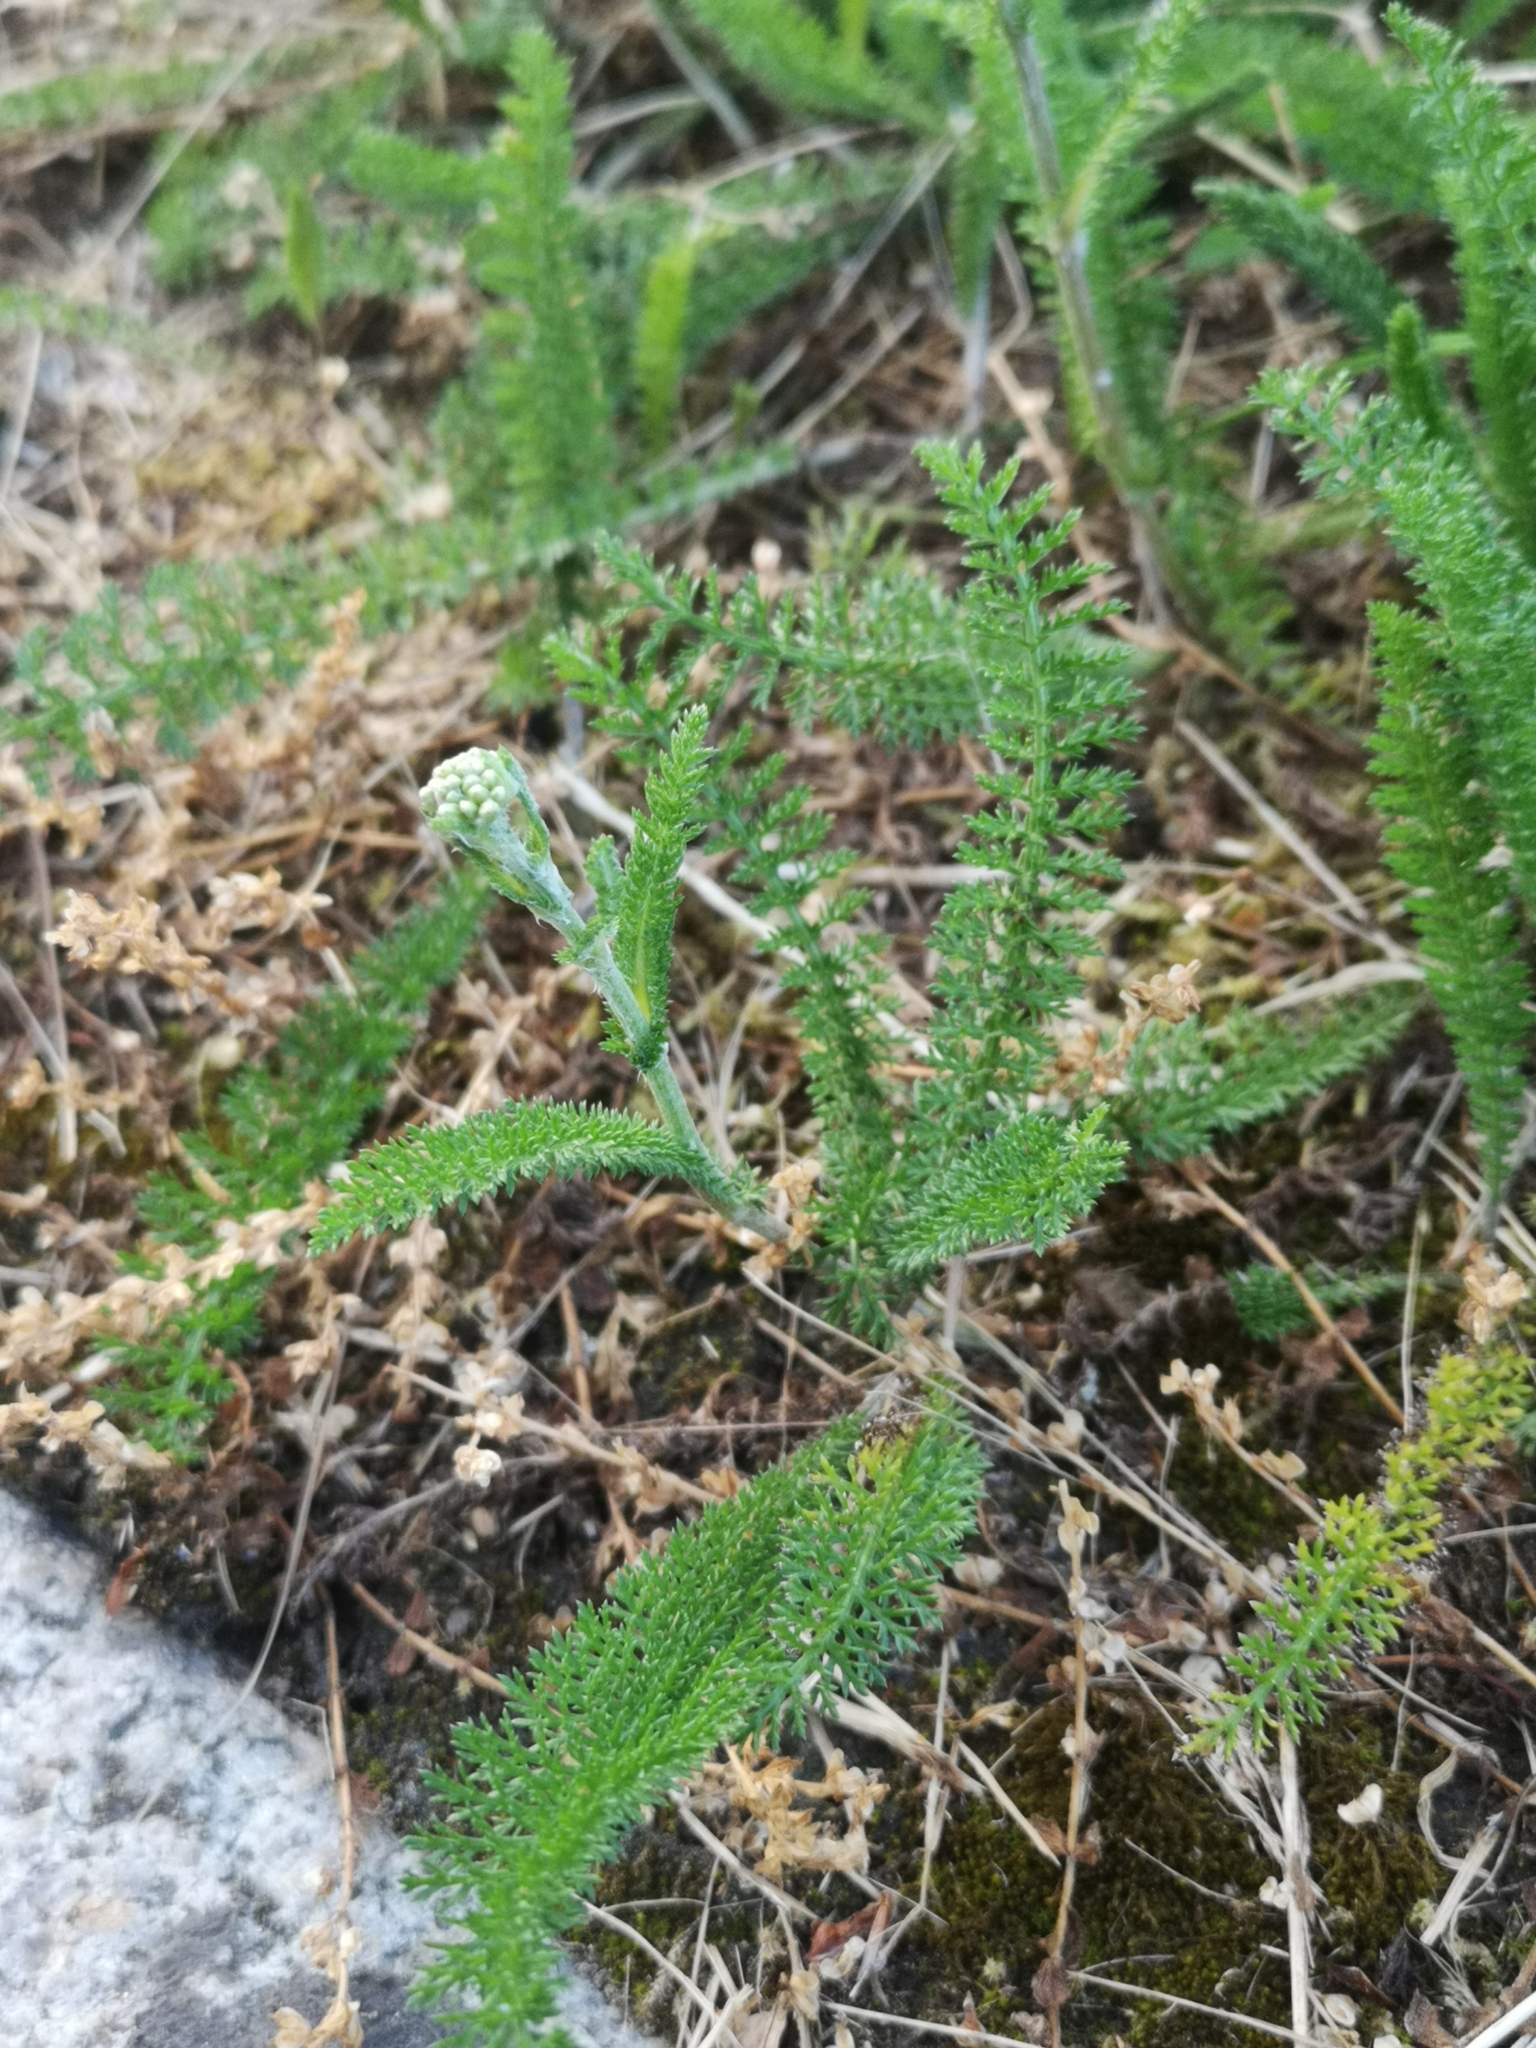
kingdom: Plantae
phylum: Tracheophyta
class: Magnoliopsida
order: Asterales
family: Asteraceae
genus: Achillea
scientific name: Achillea millefolium
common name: Yarrow
